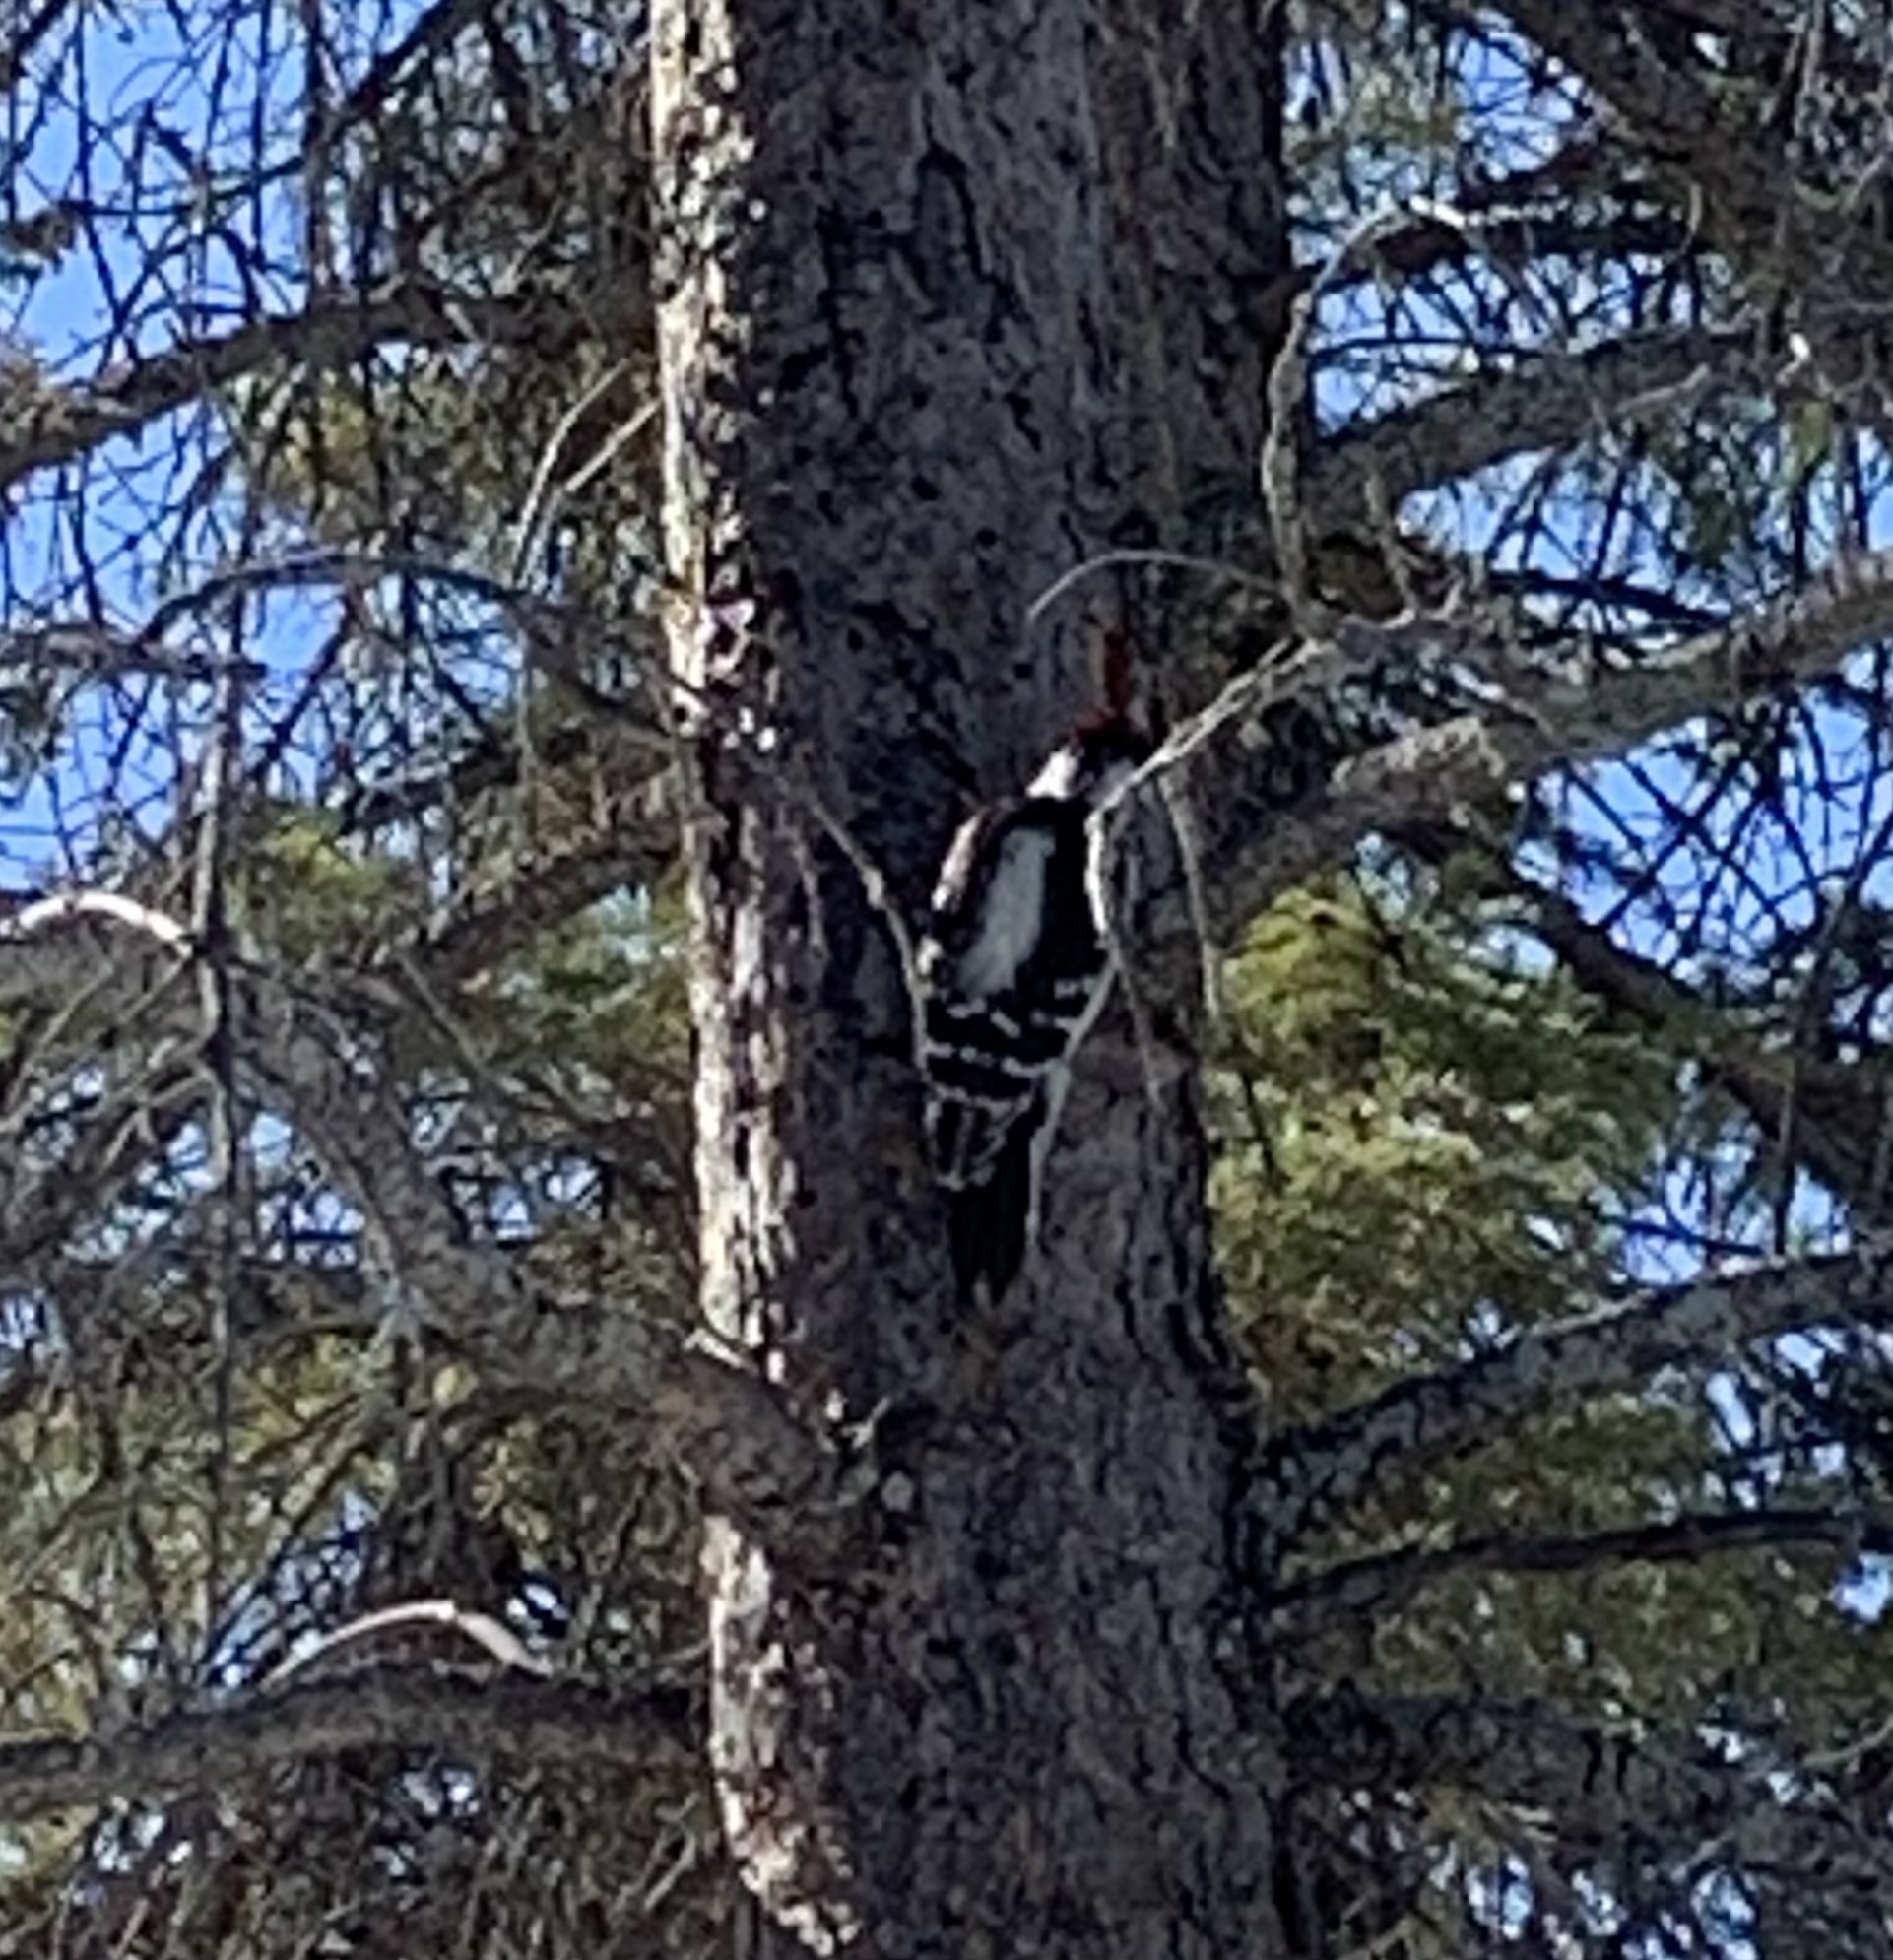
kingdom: Animalia
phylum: Chordata
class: Aves
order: Piciformes
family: Picidae
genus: Leuconotopicus
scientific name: Leuconotopicus villosus
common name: Hairy woodpecker
